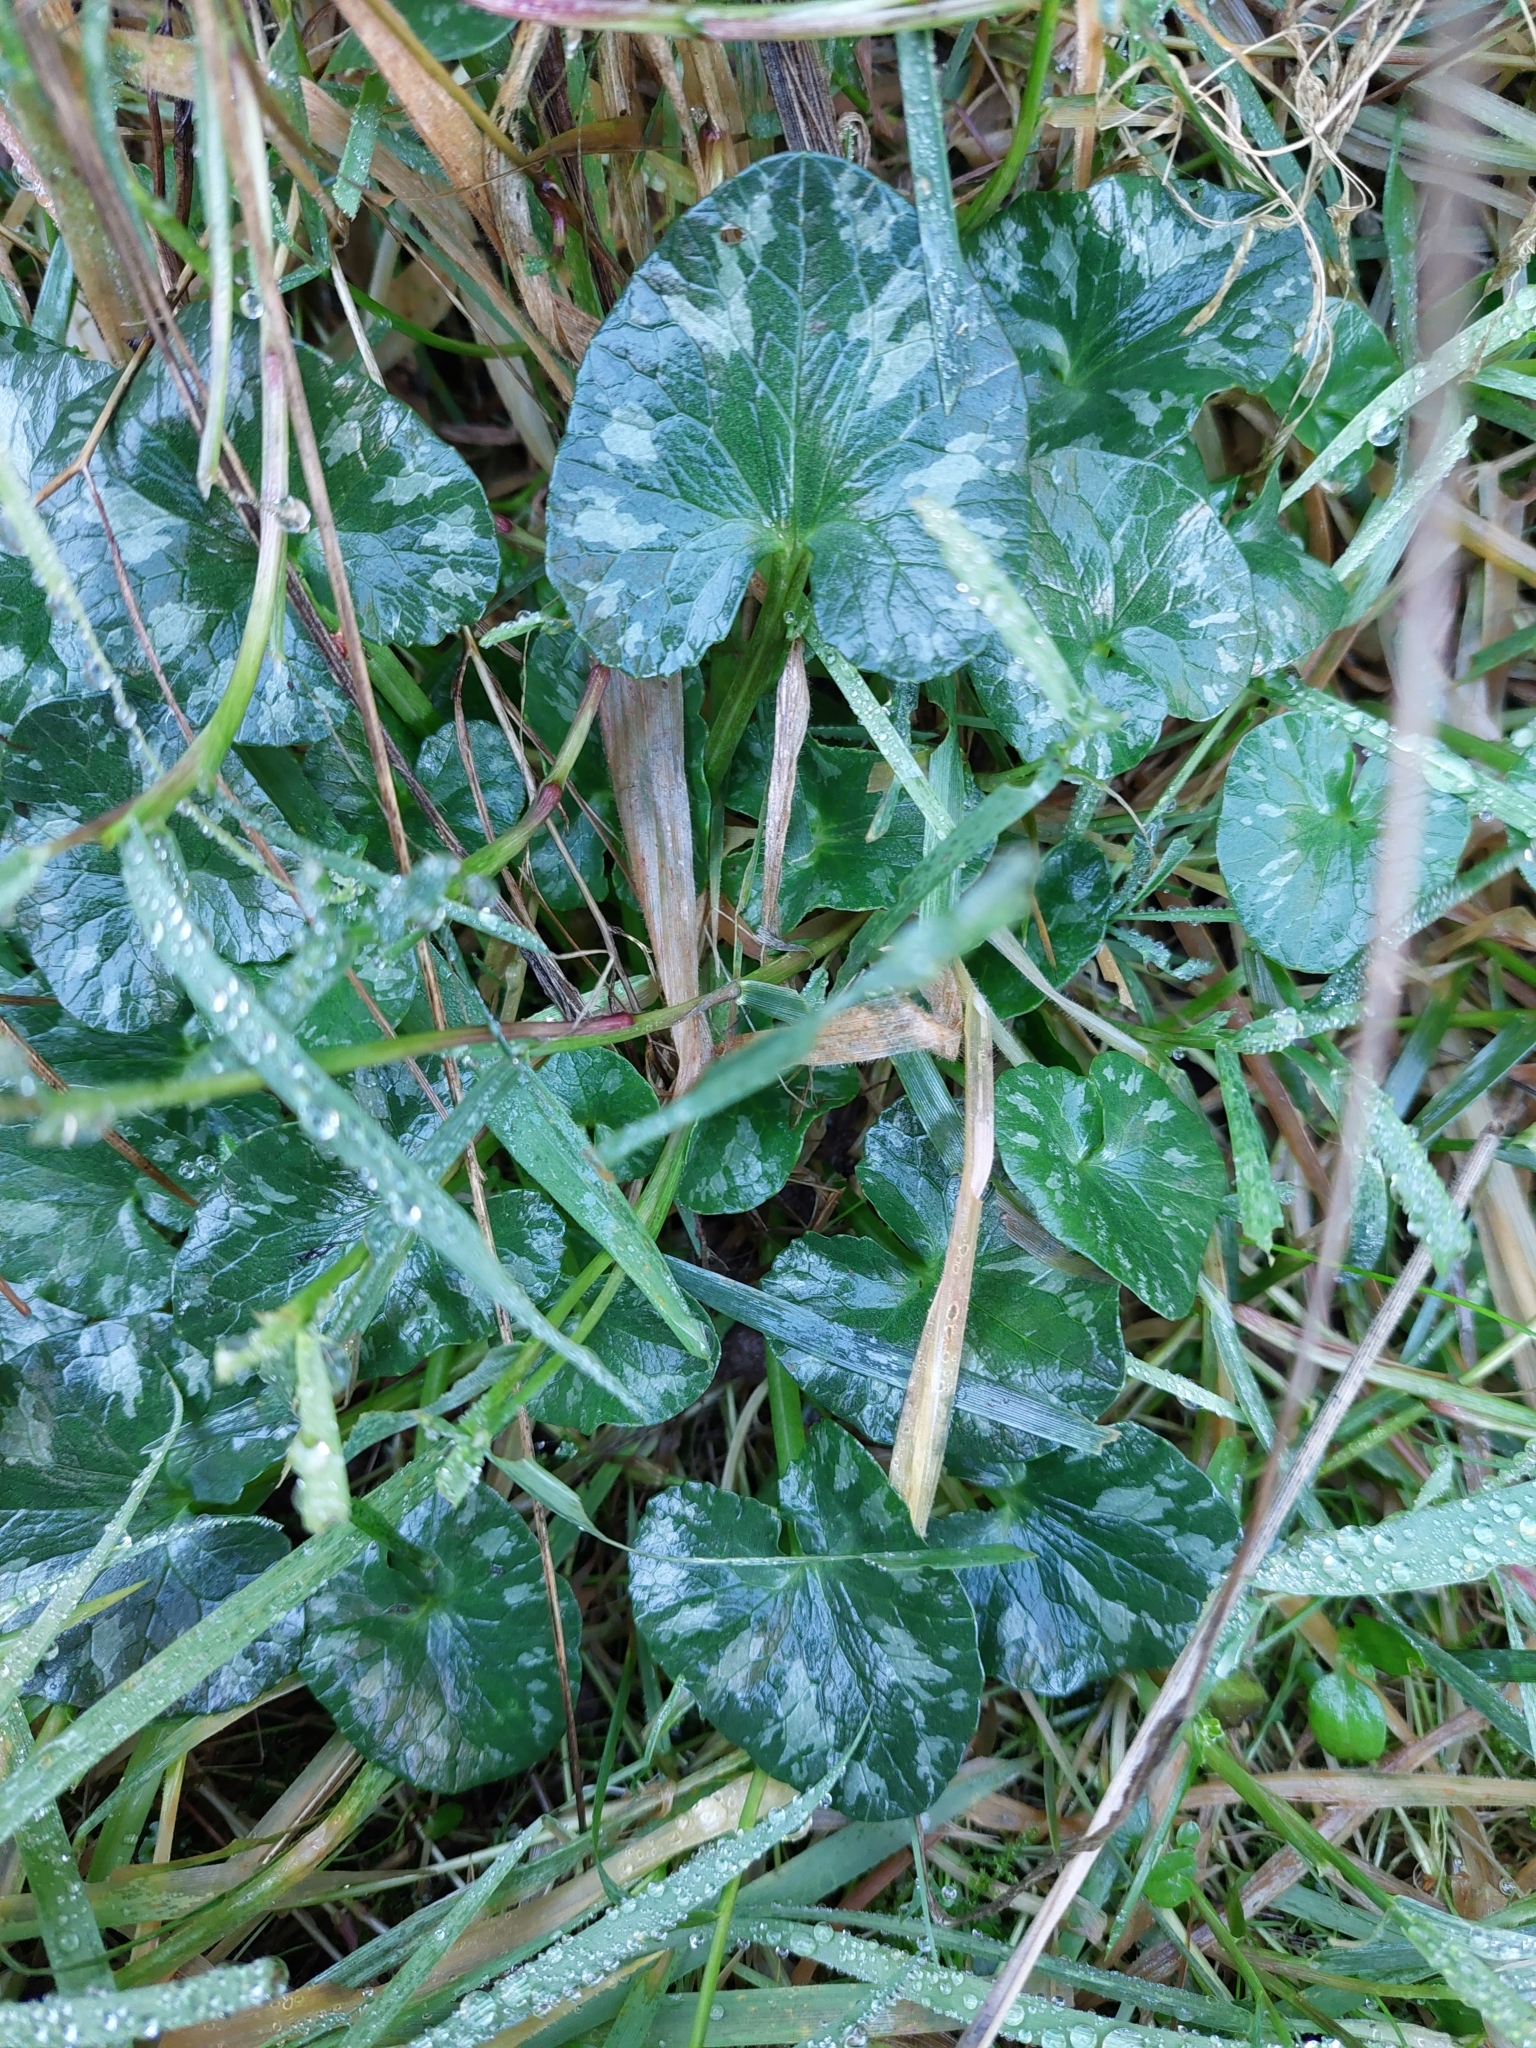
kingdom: Plantae
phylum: Tracheophyta
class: Magnoliopsida
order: Ranunculales
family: Ranunculaceae
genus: Ficaria
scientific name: Ficaria verna
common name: Lesser celandine
